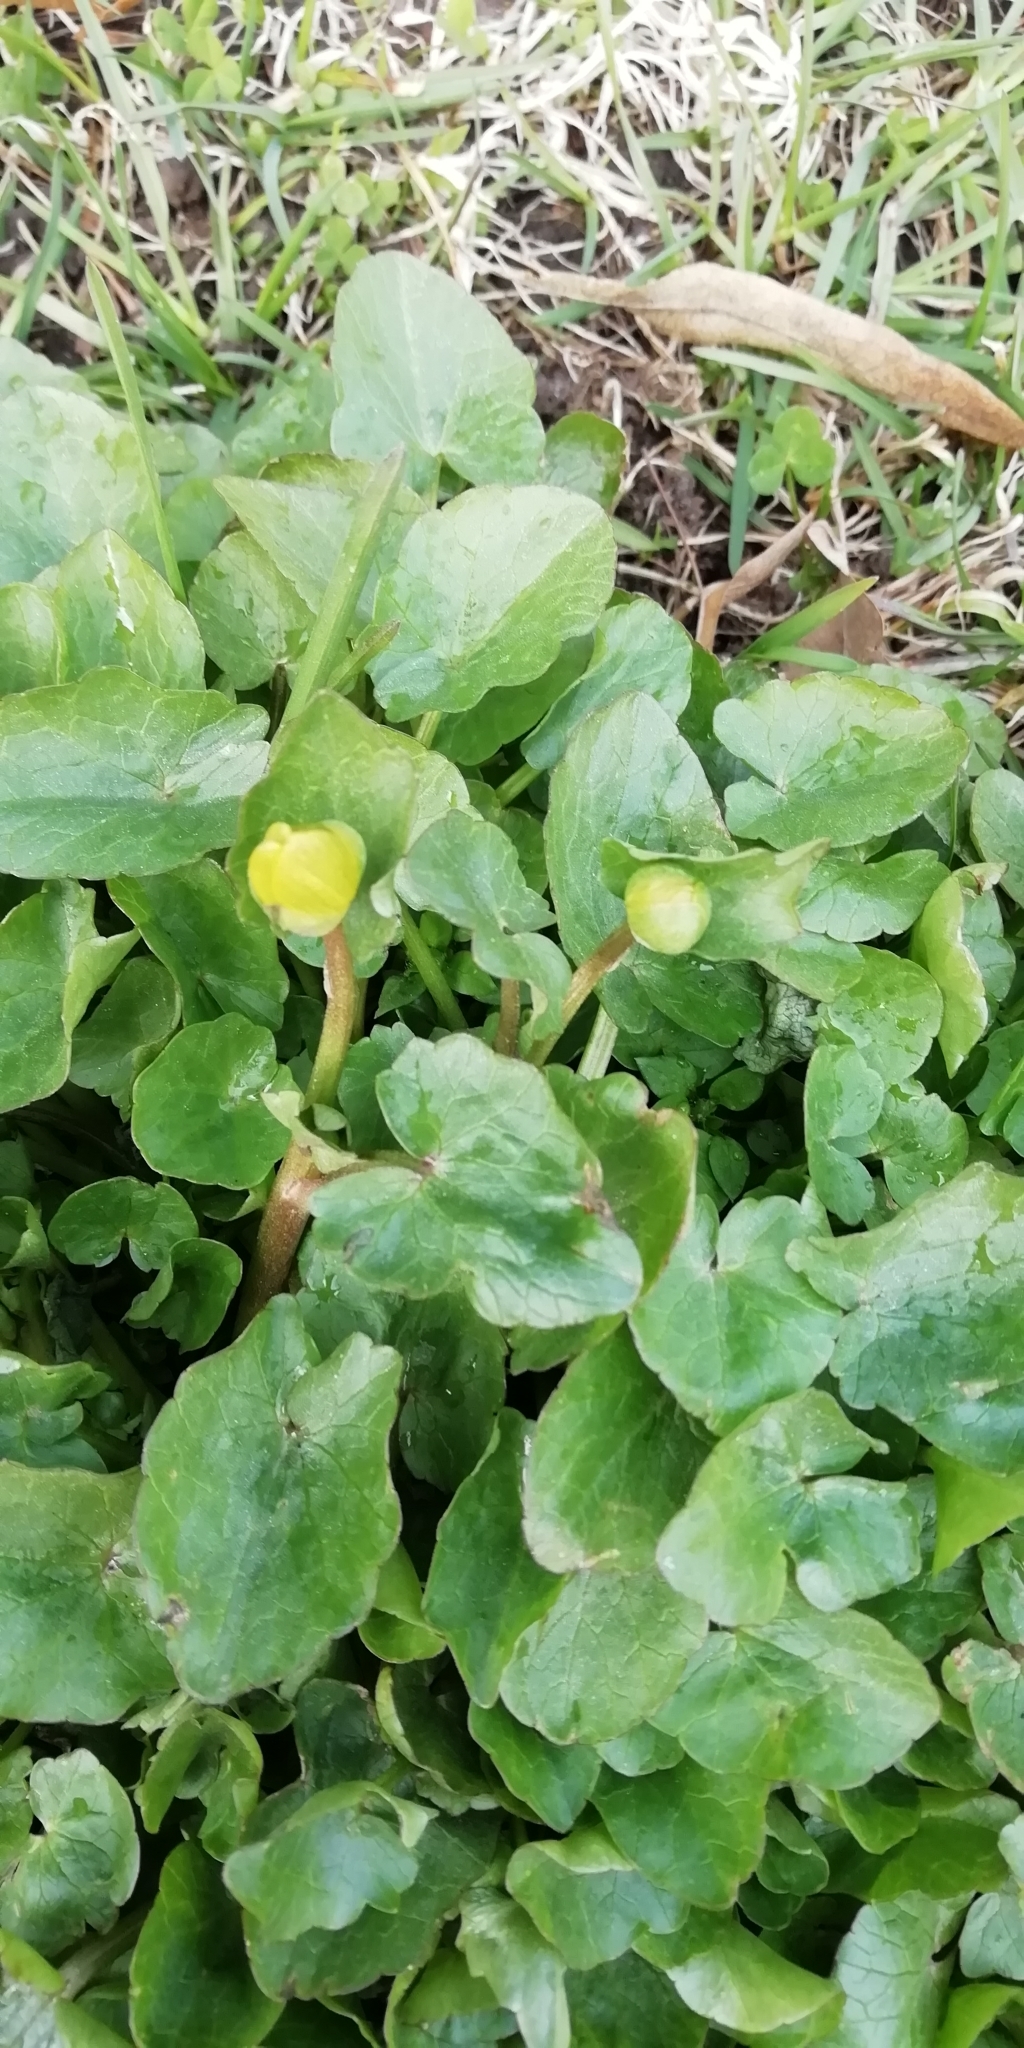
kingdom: Plantae
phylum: Tracheophyta
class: Magnoliopsida
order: Ranunculales
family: Ranunculaceae
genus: Ficaria
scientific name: Ficaria verna
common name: Lesser celandine
